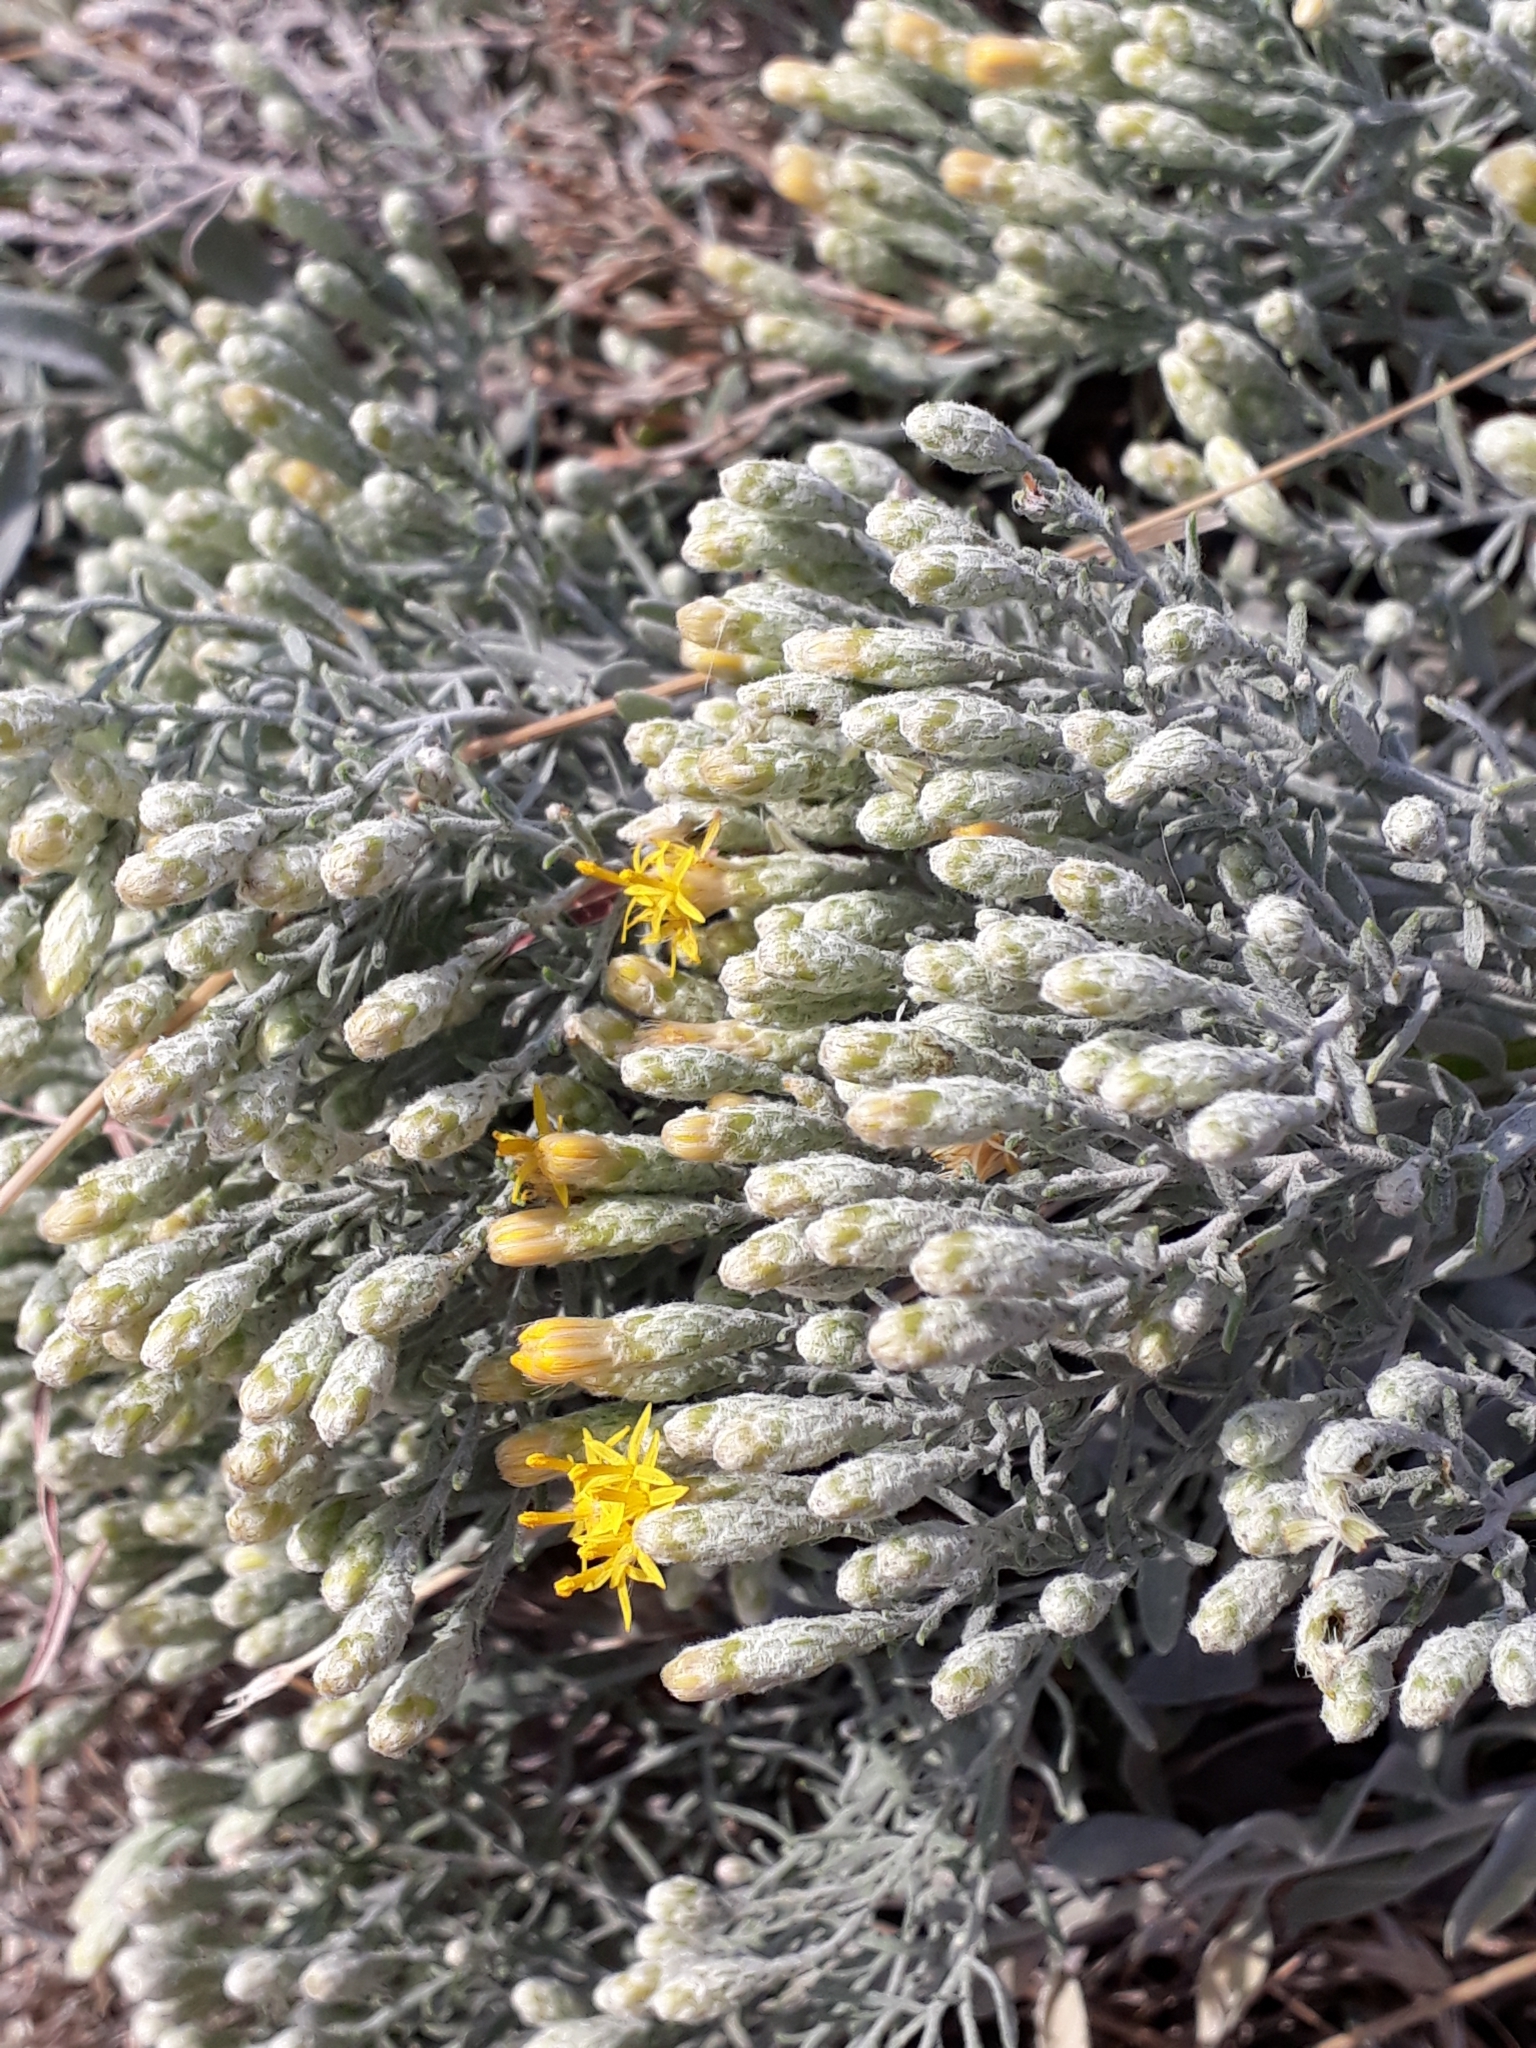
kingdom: Plantae
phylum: Tracheophyta
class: Magnoliopsida
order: Asterales
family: Asteraceae
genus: Galatella
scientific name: Galatella villosa
